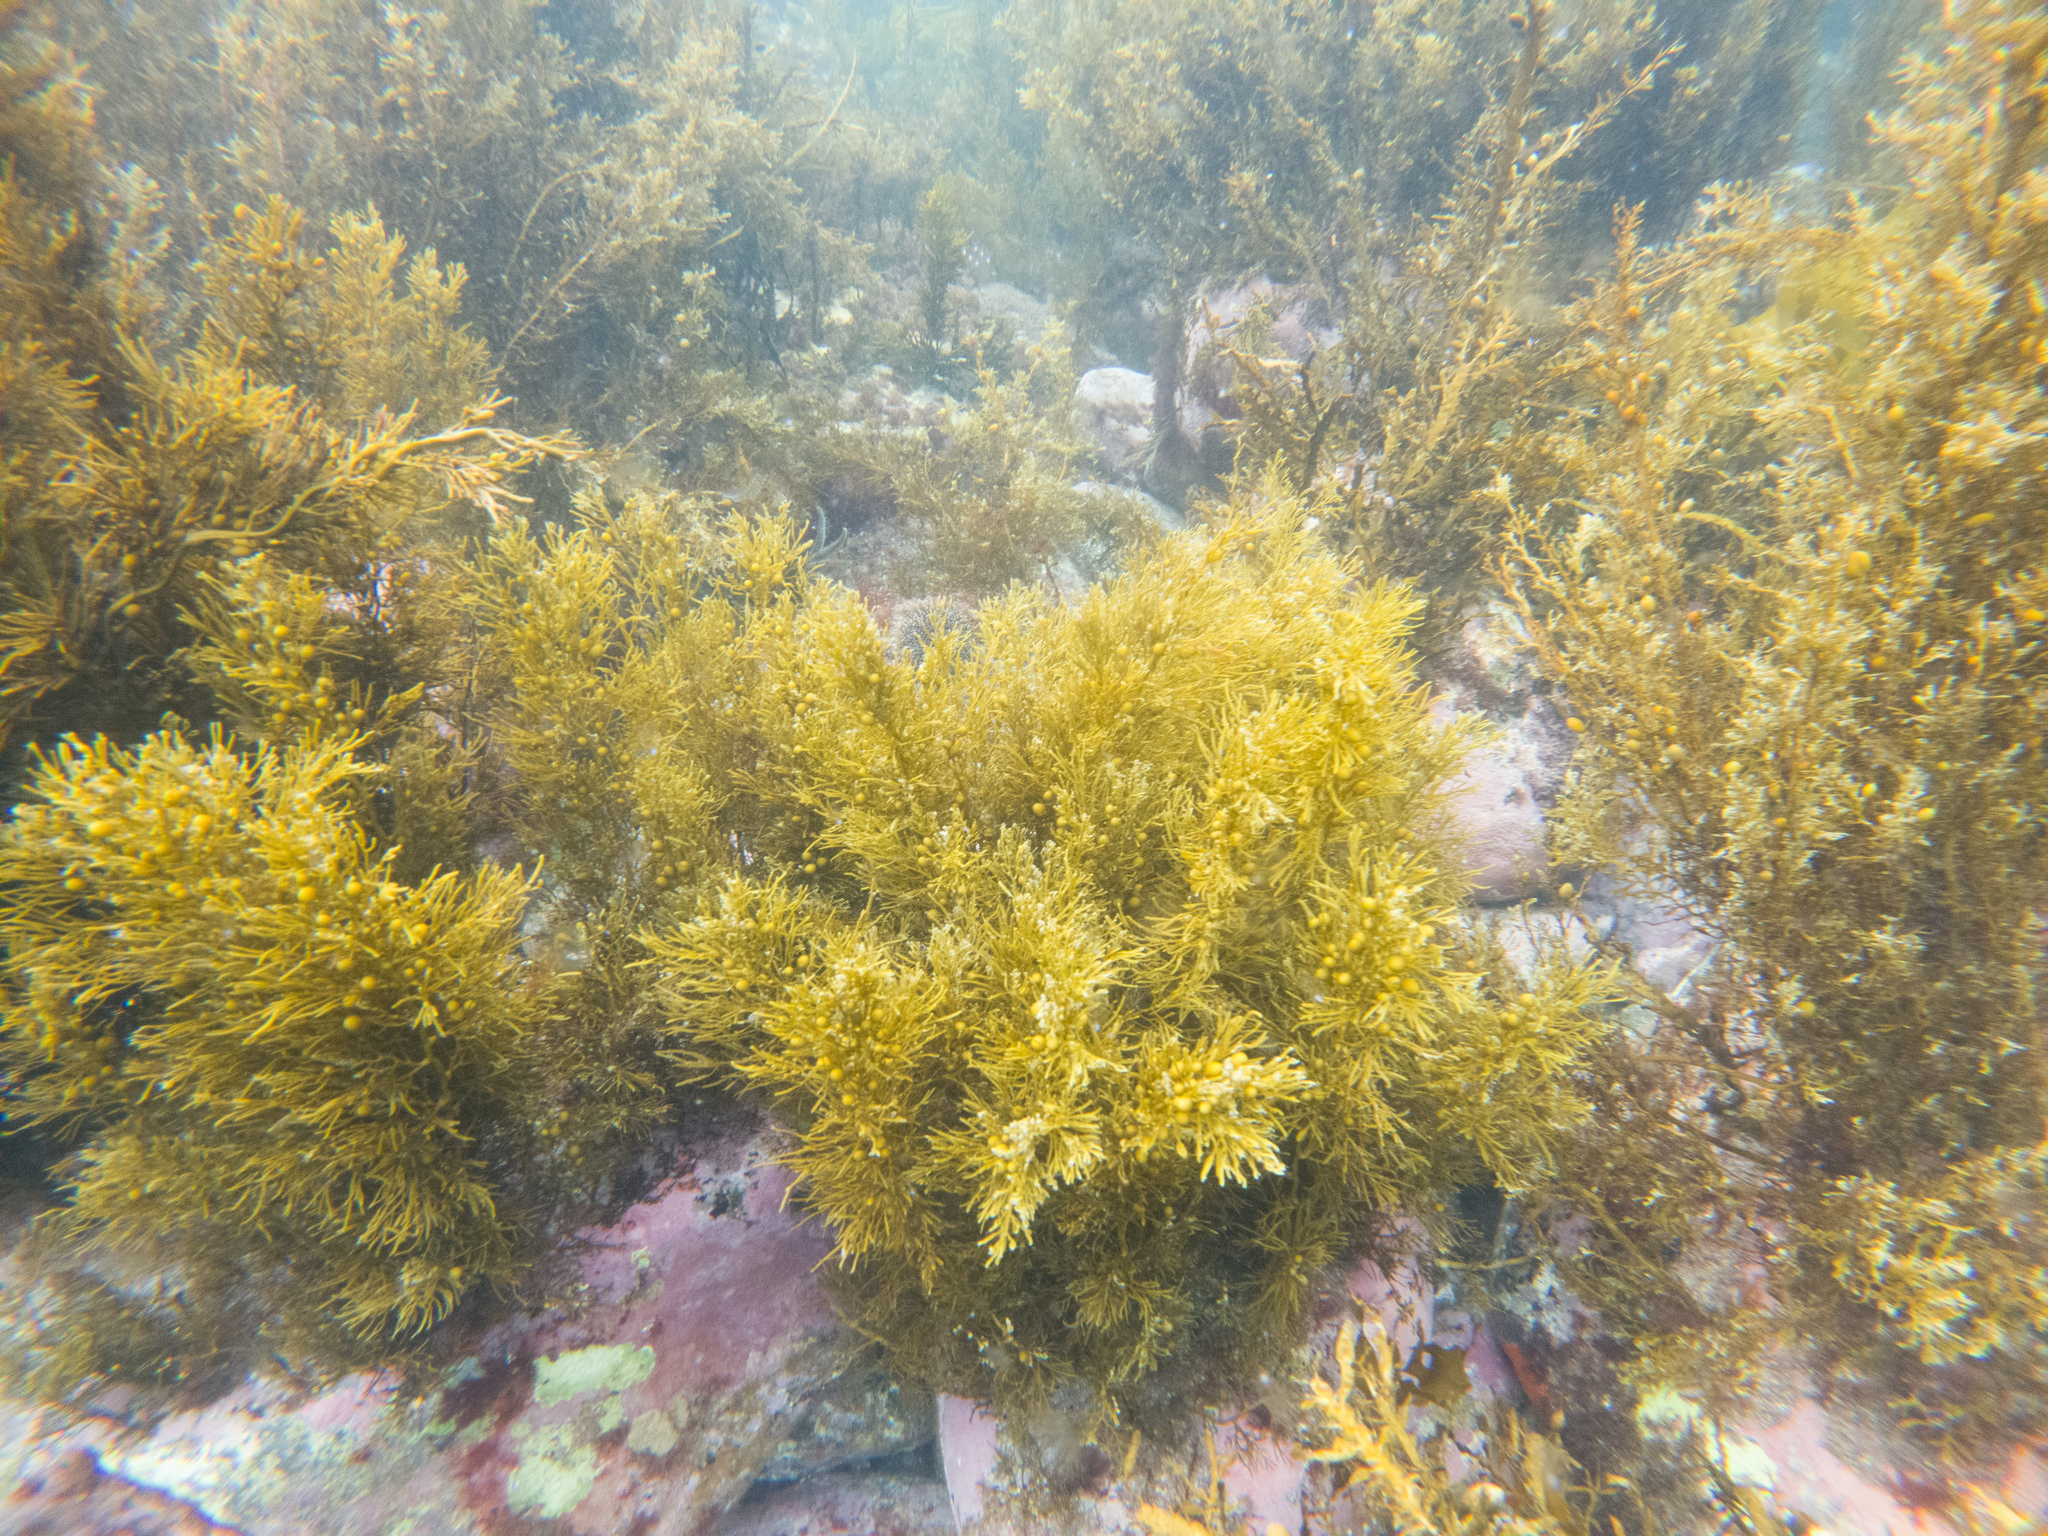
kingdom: Chromista
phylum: Ochrophyta
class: Phaeophyceae
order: Fucales
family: Sargassaceae
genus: Cystophora
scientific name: Cystophora retroflexa
